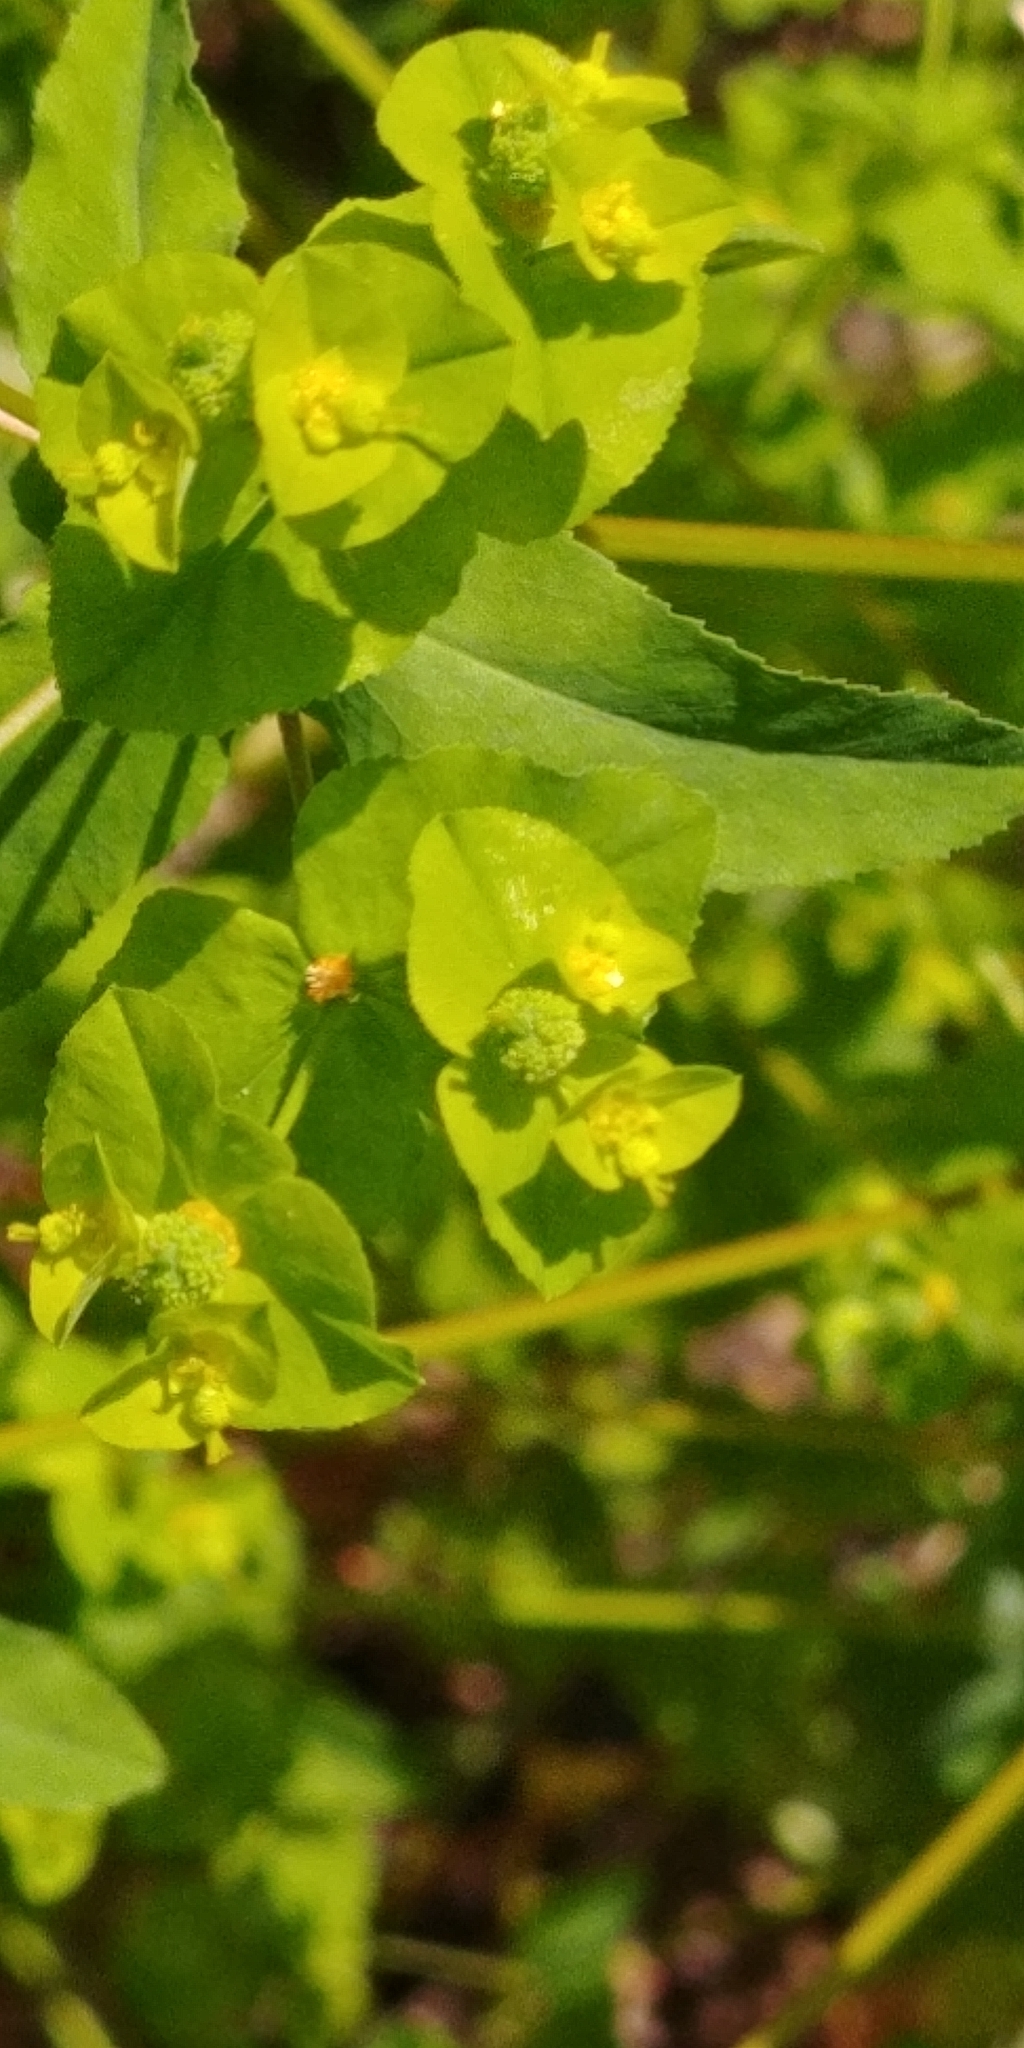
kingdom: Plantae
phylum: Tracheophyta
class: Magnoliopsida
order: Malpighiales
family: Euphorbiaceae
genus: Euphorbia
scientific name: Euphorbia stricta
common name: Upright spurge
